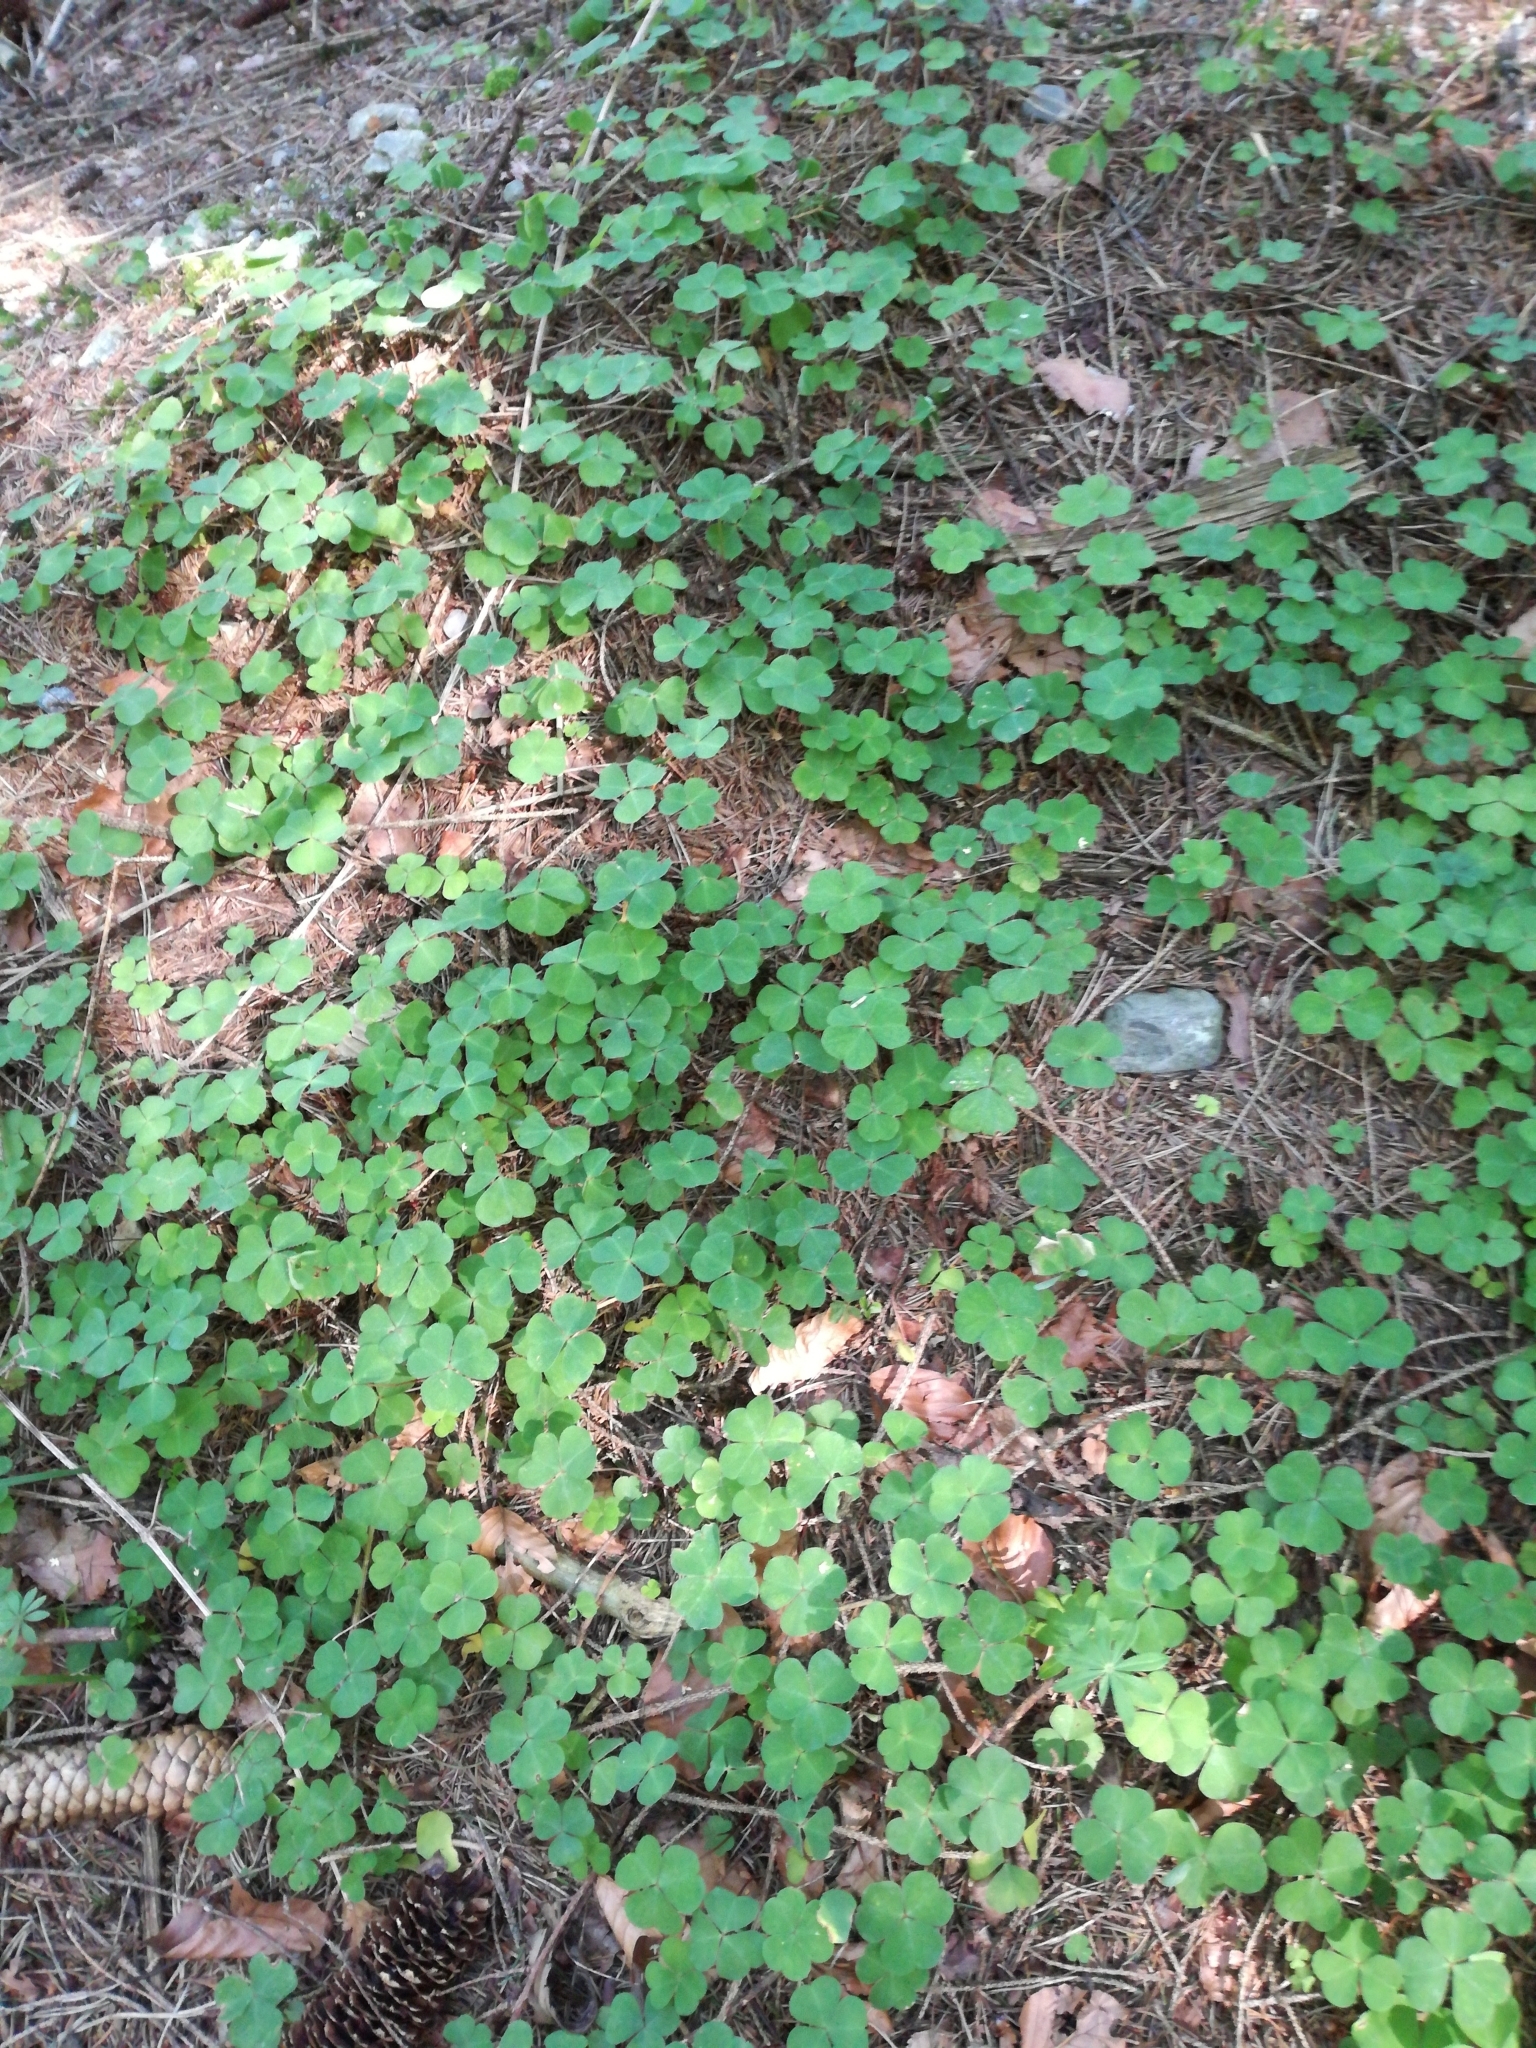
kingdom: Plantae
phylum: Tracheophyta
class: Magnoliopsida
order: Oxalidales
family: Oxalidaceae
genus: Oxalis
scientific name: Oxalis acetosella
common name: Wood-sorrel
